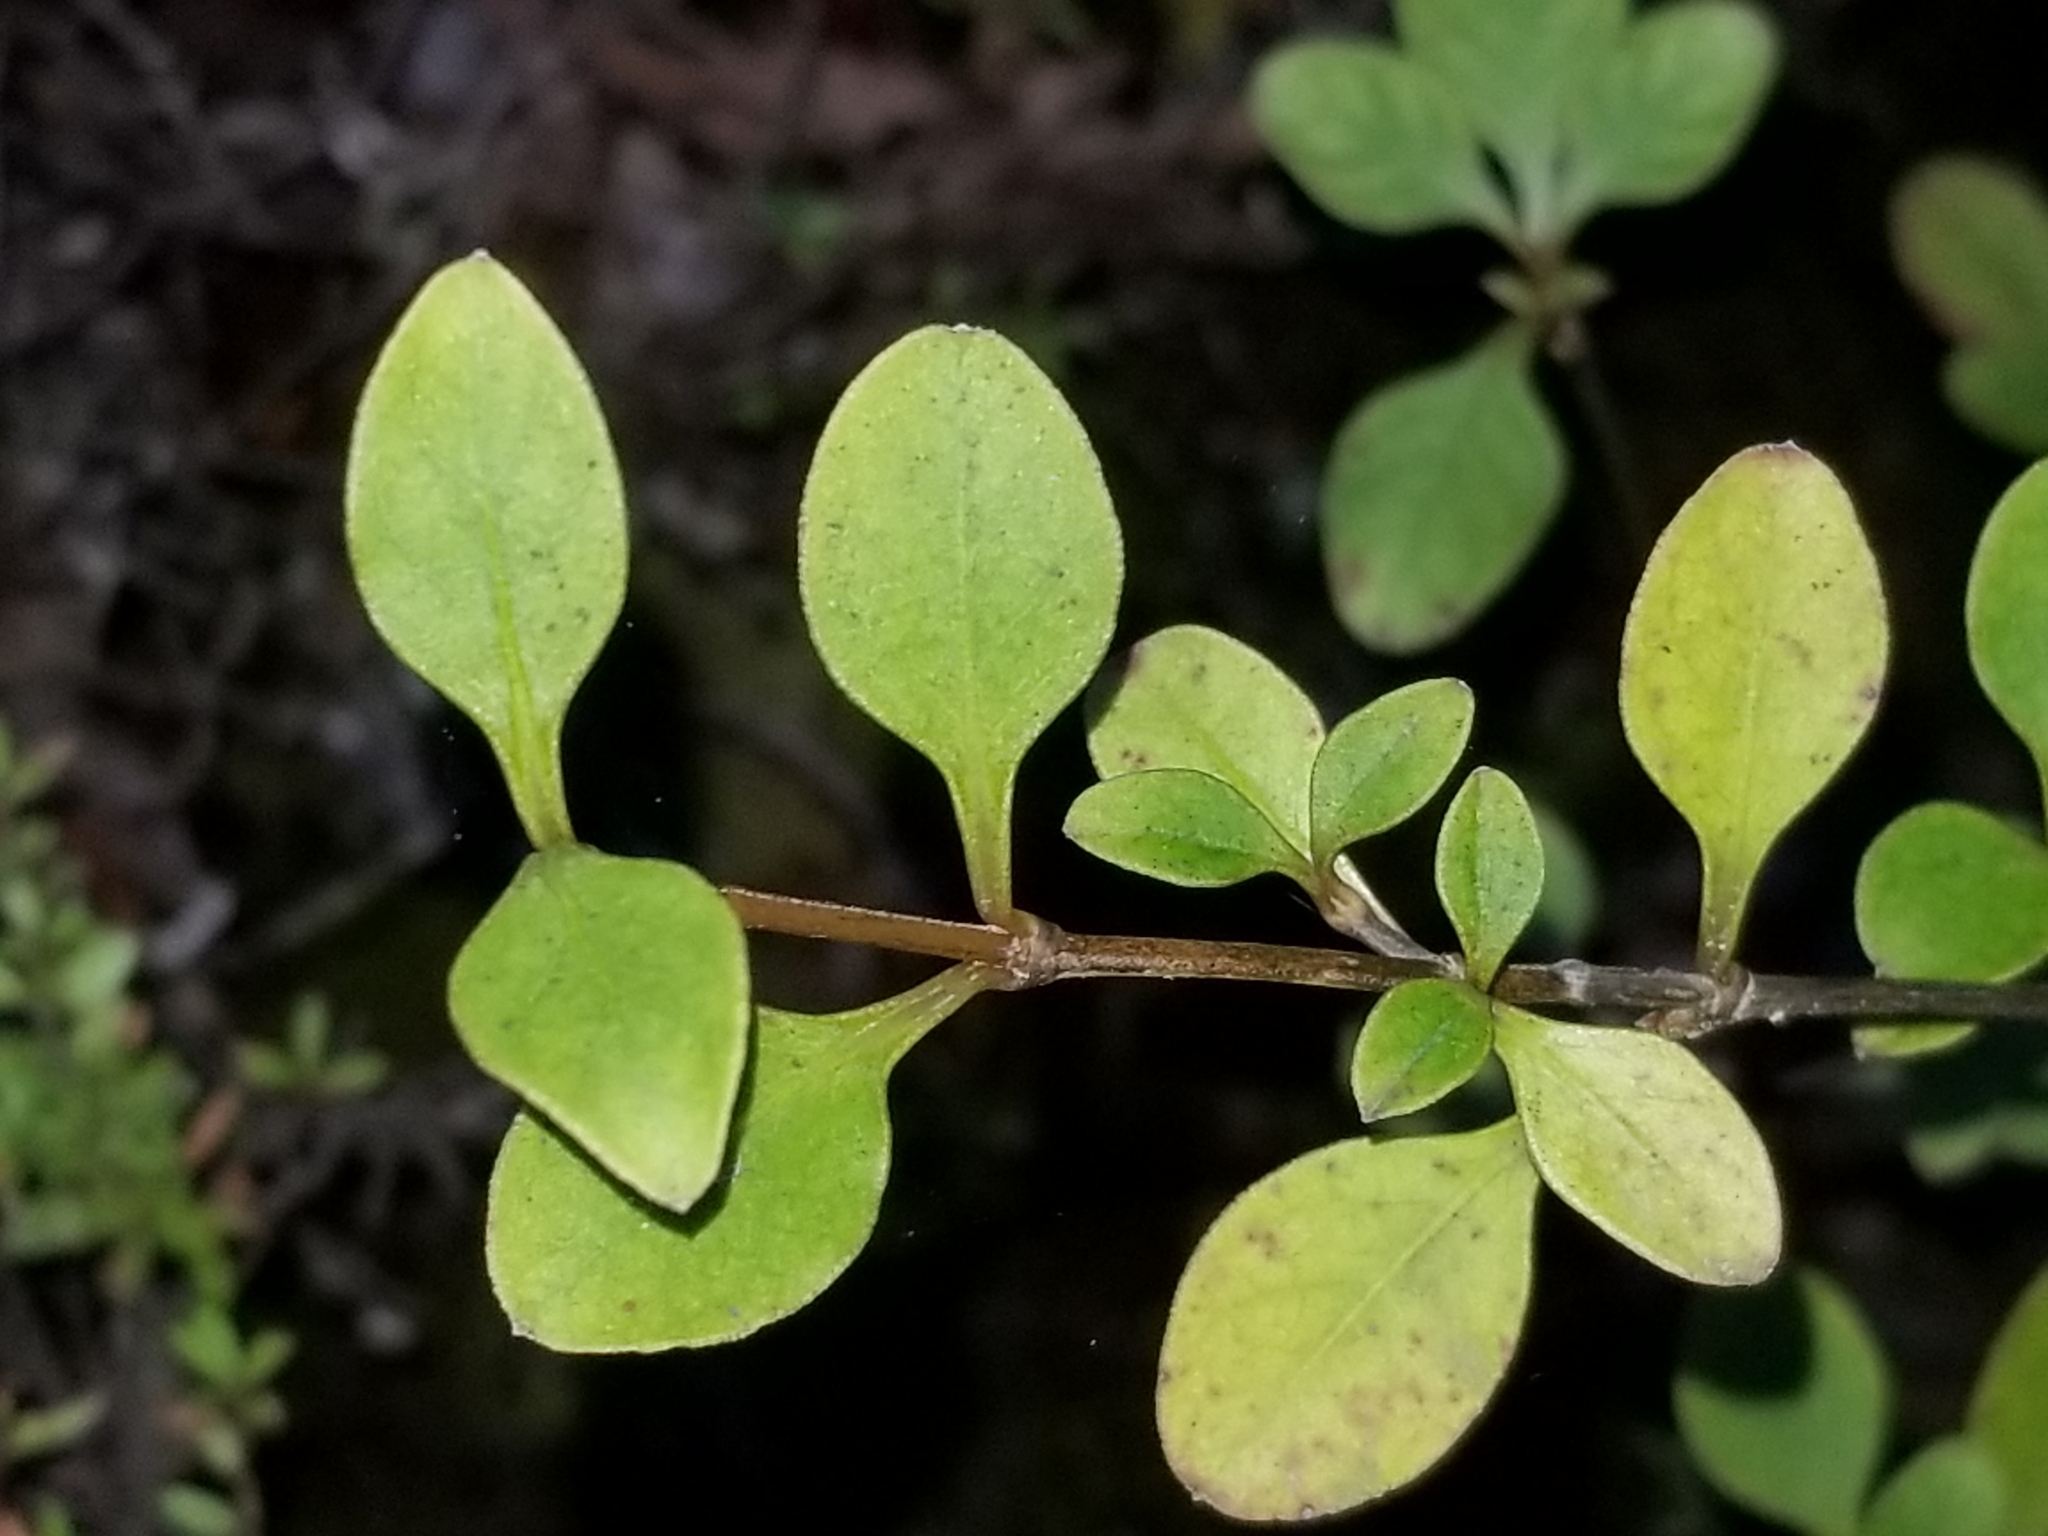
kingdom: Plantae
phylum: Tracheophyta
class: Magnoliopsida
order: Gentianales
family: Rubiaceae
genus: Coprosma
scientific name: Coprosma foetidissima
